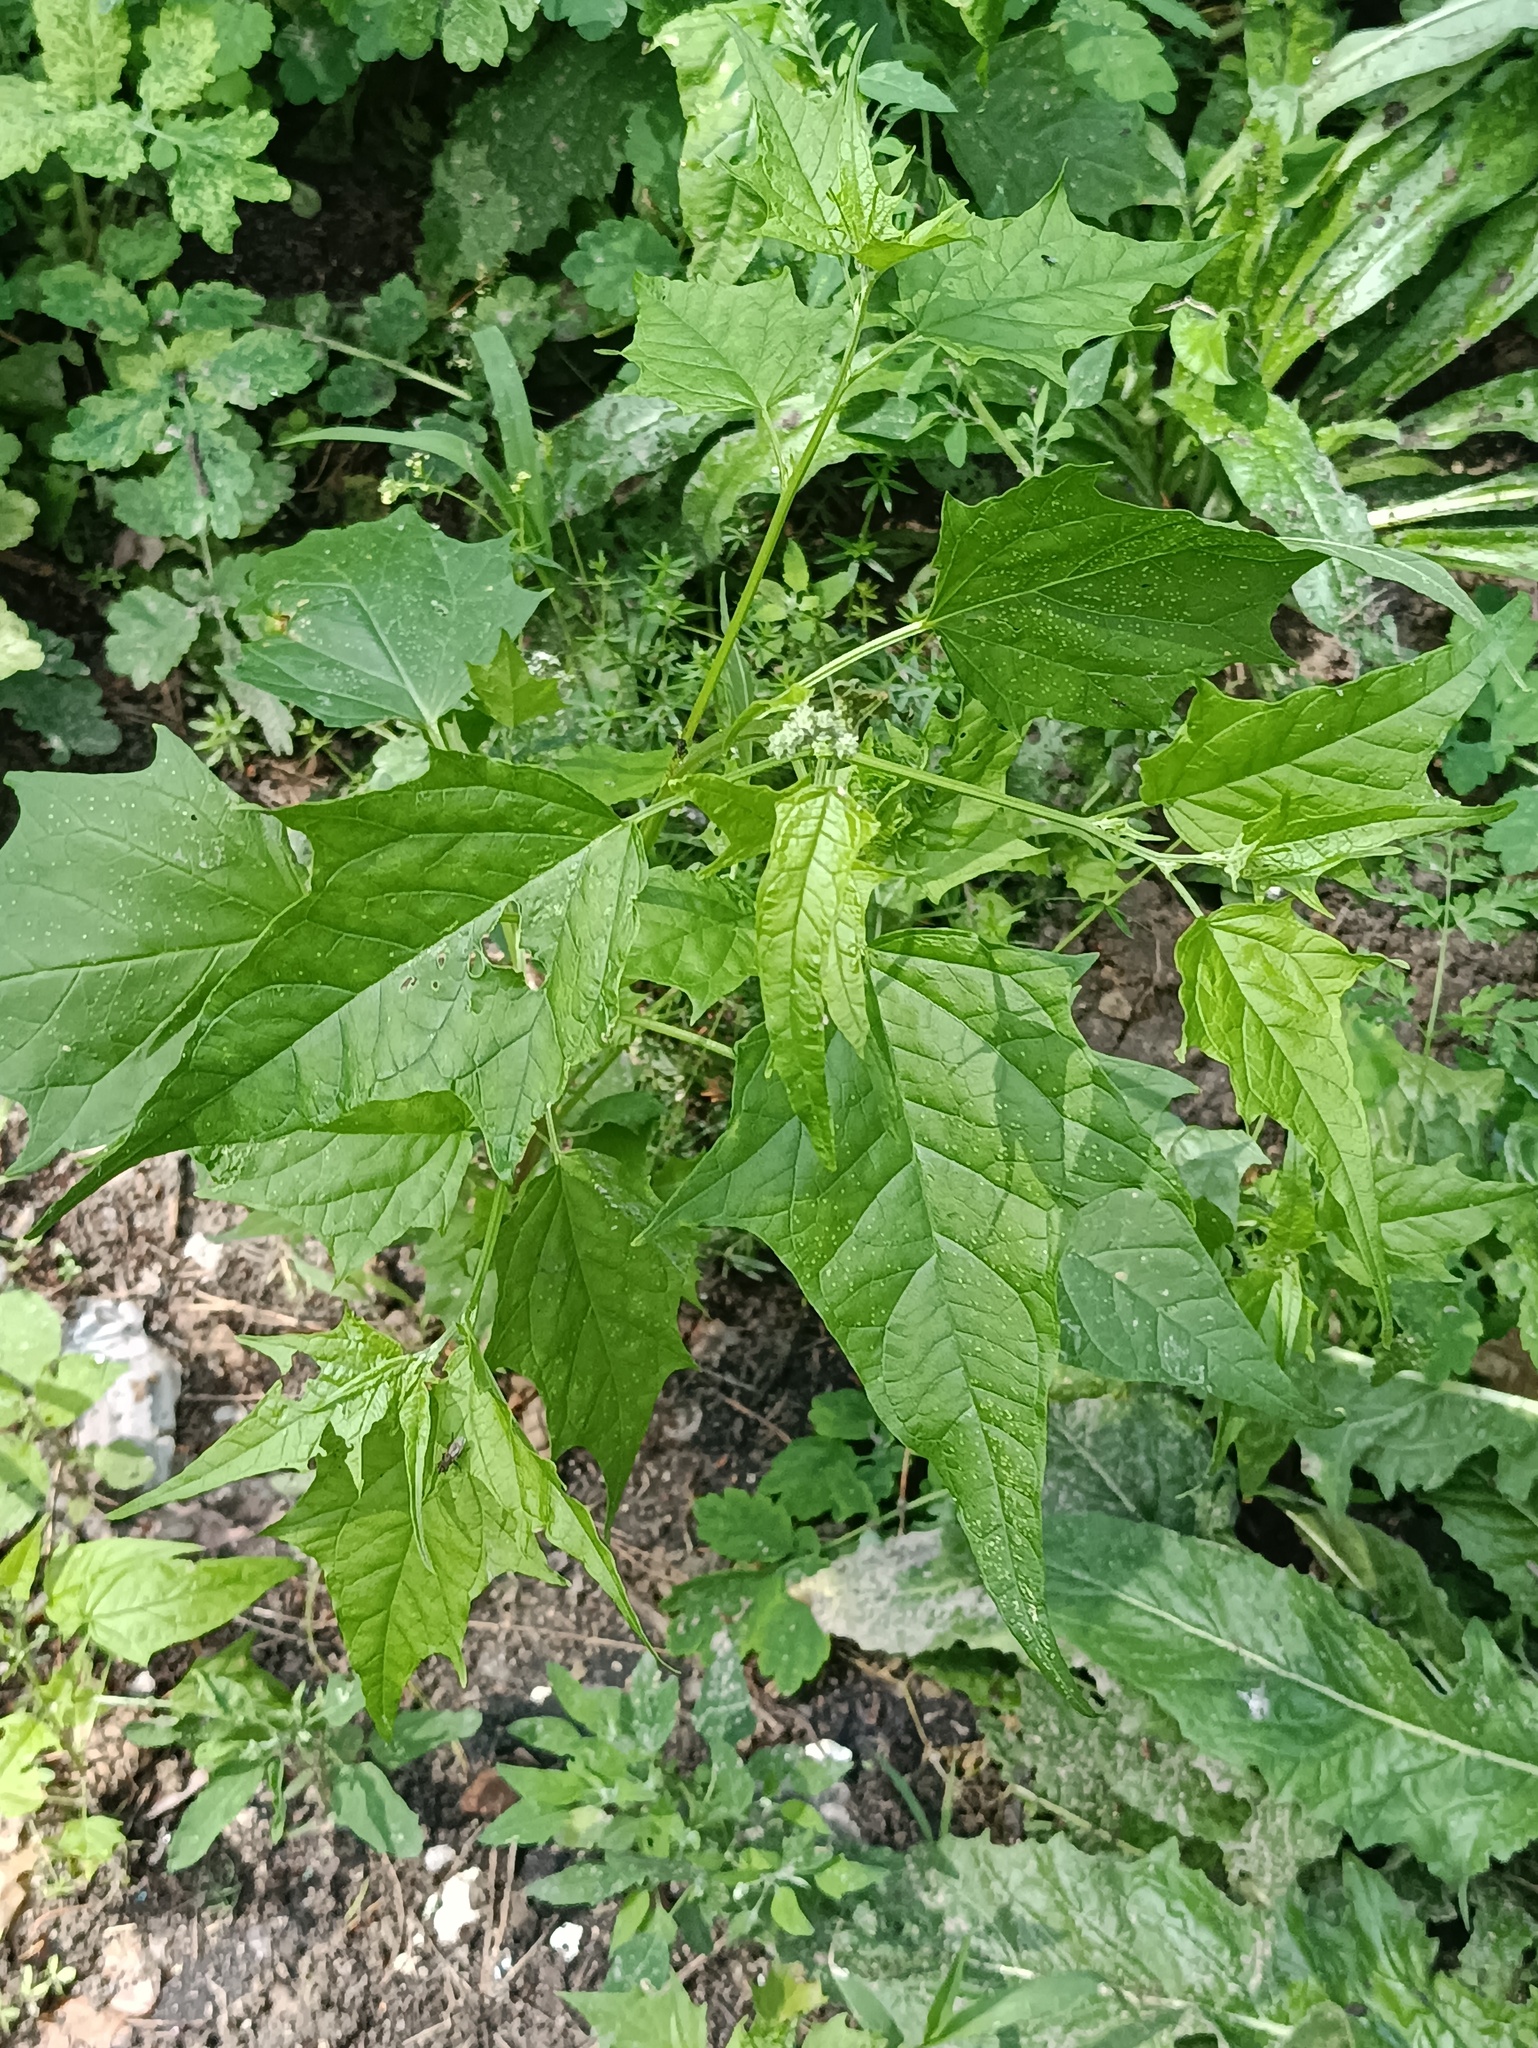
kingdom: Plantae
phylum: Tracheophyta
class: Magnoliopsida
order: Caryophyllales
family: Amaranthaceae
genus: Chenopodiastrum
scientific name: Chenopodiastrum hybridum
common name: Mapleleaf goosefoot
